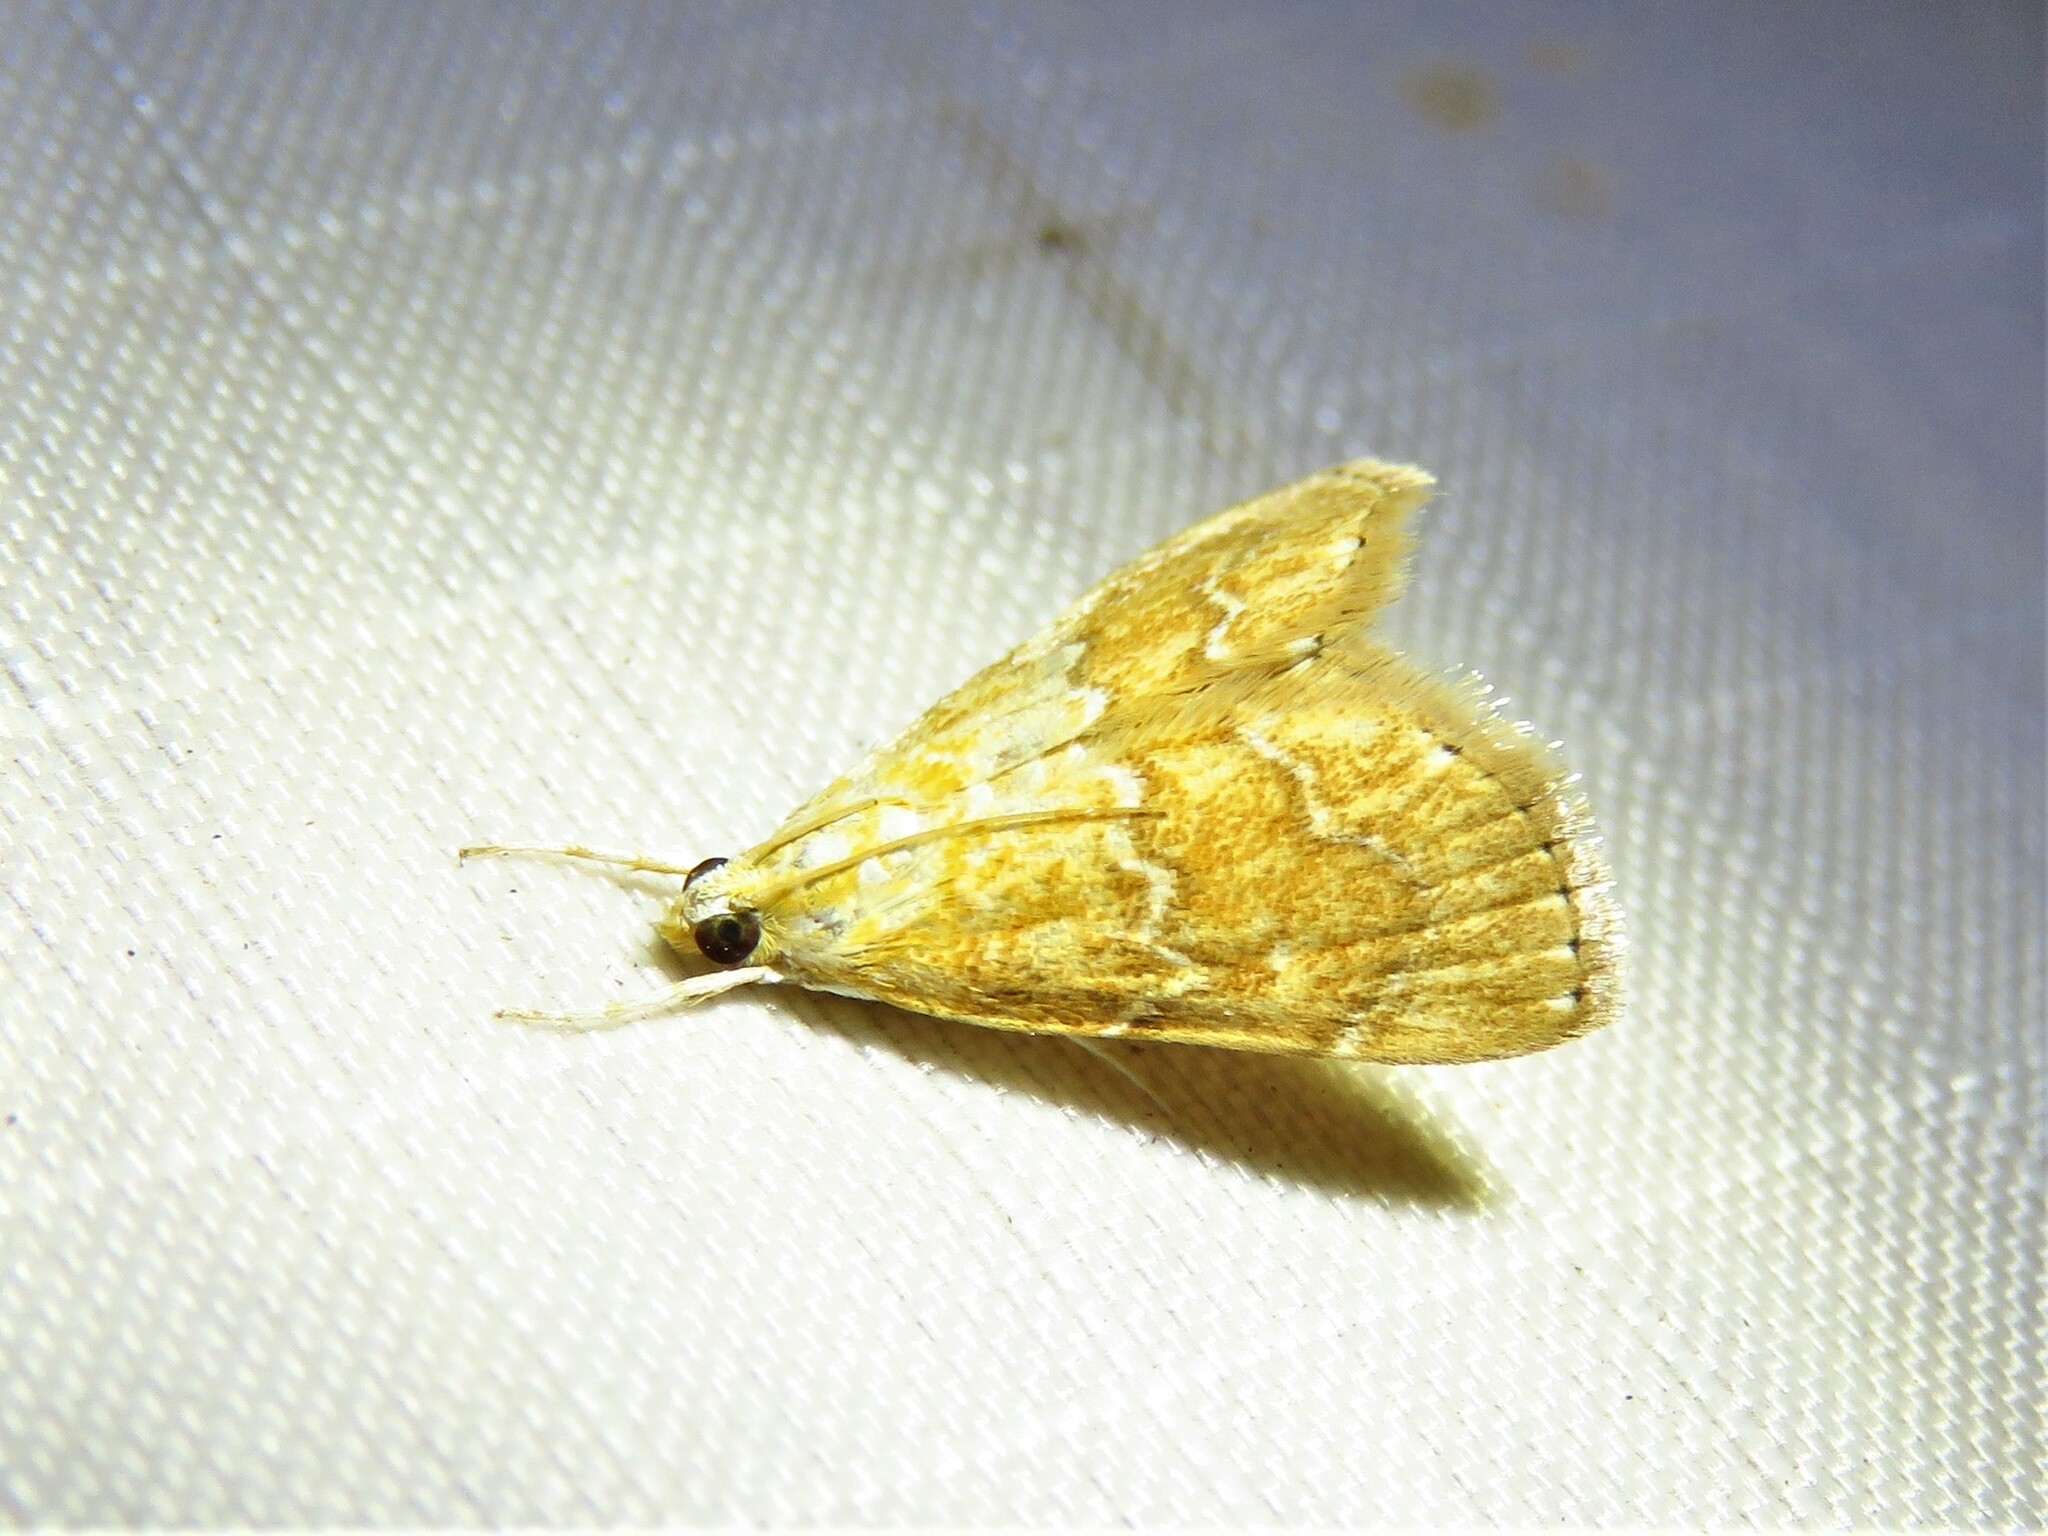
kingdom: Animalia
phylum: Arthropoda
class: Insecta
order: Lepidoptera
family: Crambidae
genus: Glaphyria
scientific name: Glaphyria sesquistrialis
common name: White-roped glaphyria
